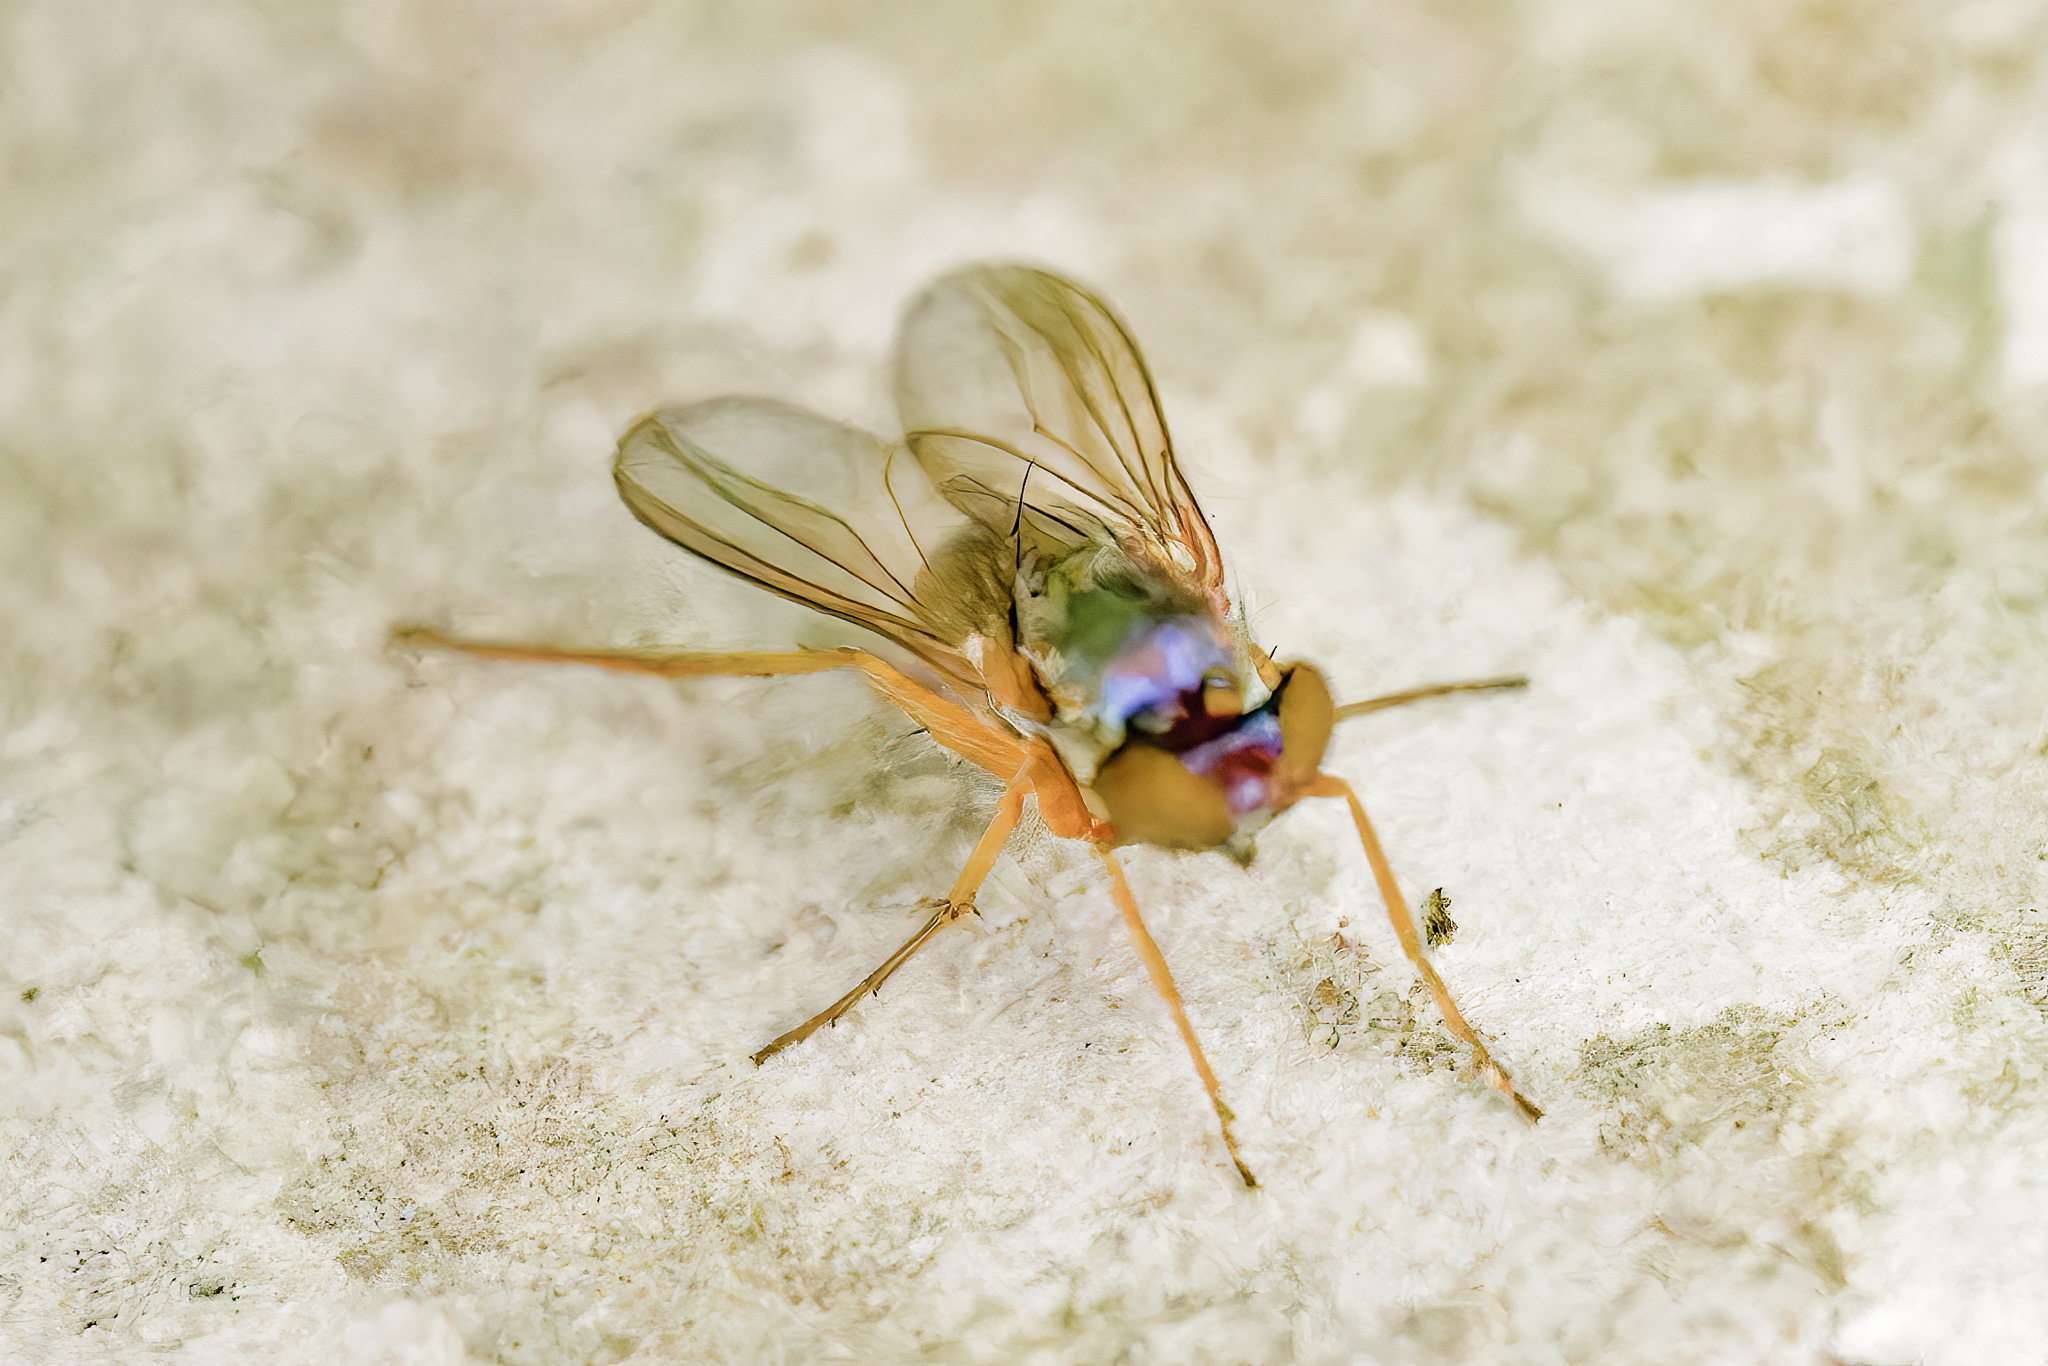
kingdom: Animalia
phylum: Arthropoda
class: Insecta
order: Diptera
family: Dolichopodidae
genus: Medetera
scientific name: Medetera aberrans
